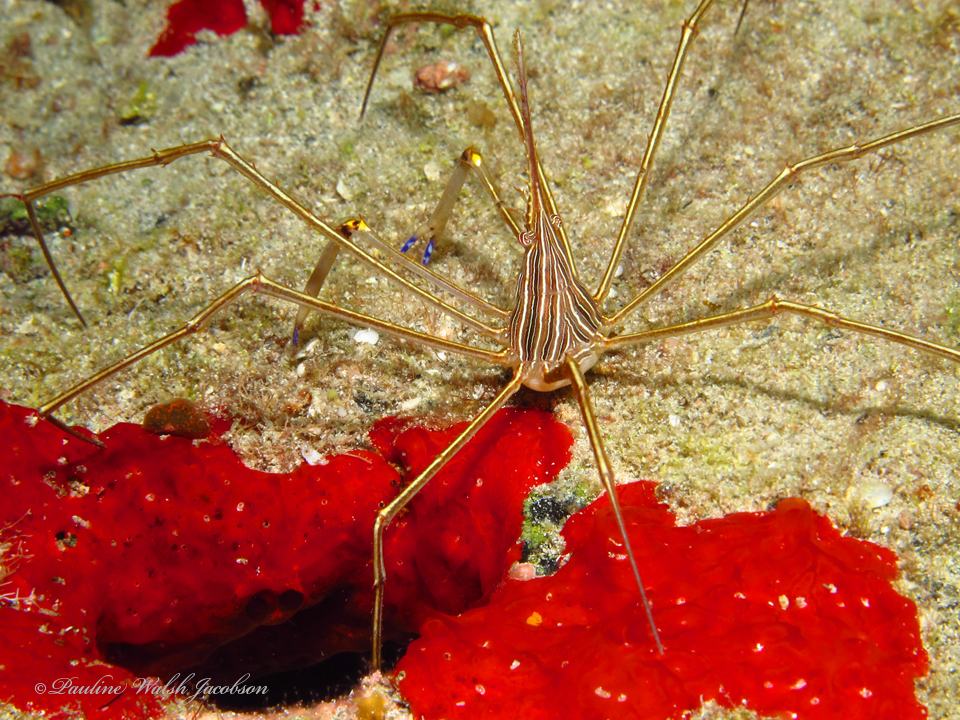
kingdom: Animalia
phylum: Arthropoda
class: Malacostraca
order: Decapoda
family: Inachoididae
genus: Stenorhynchus
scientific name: Stenorhynchus seticornis
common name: Arrow crab
